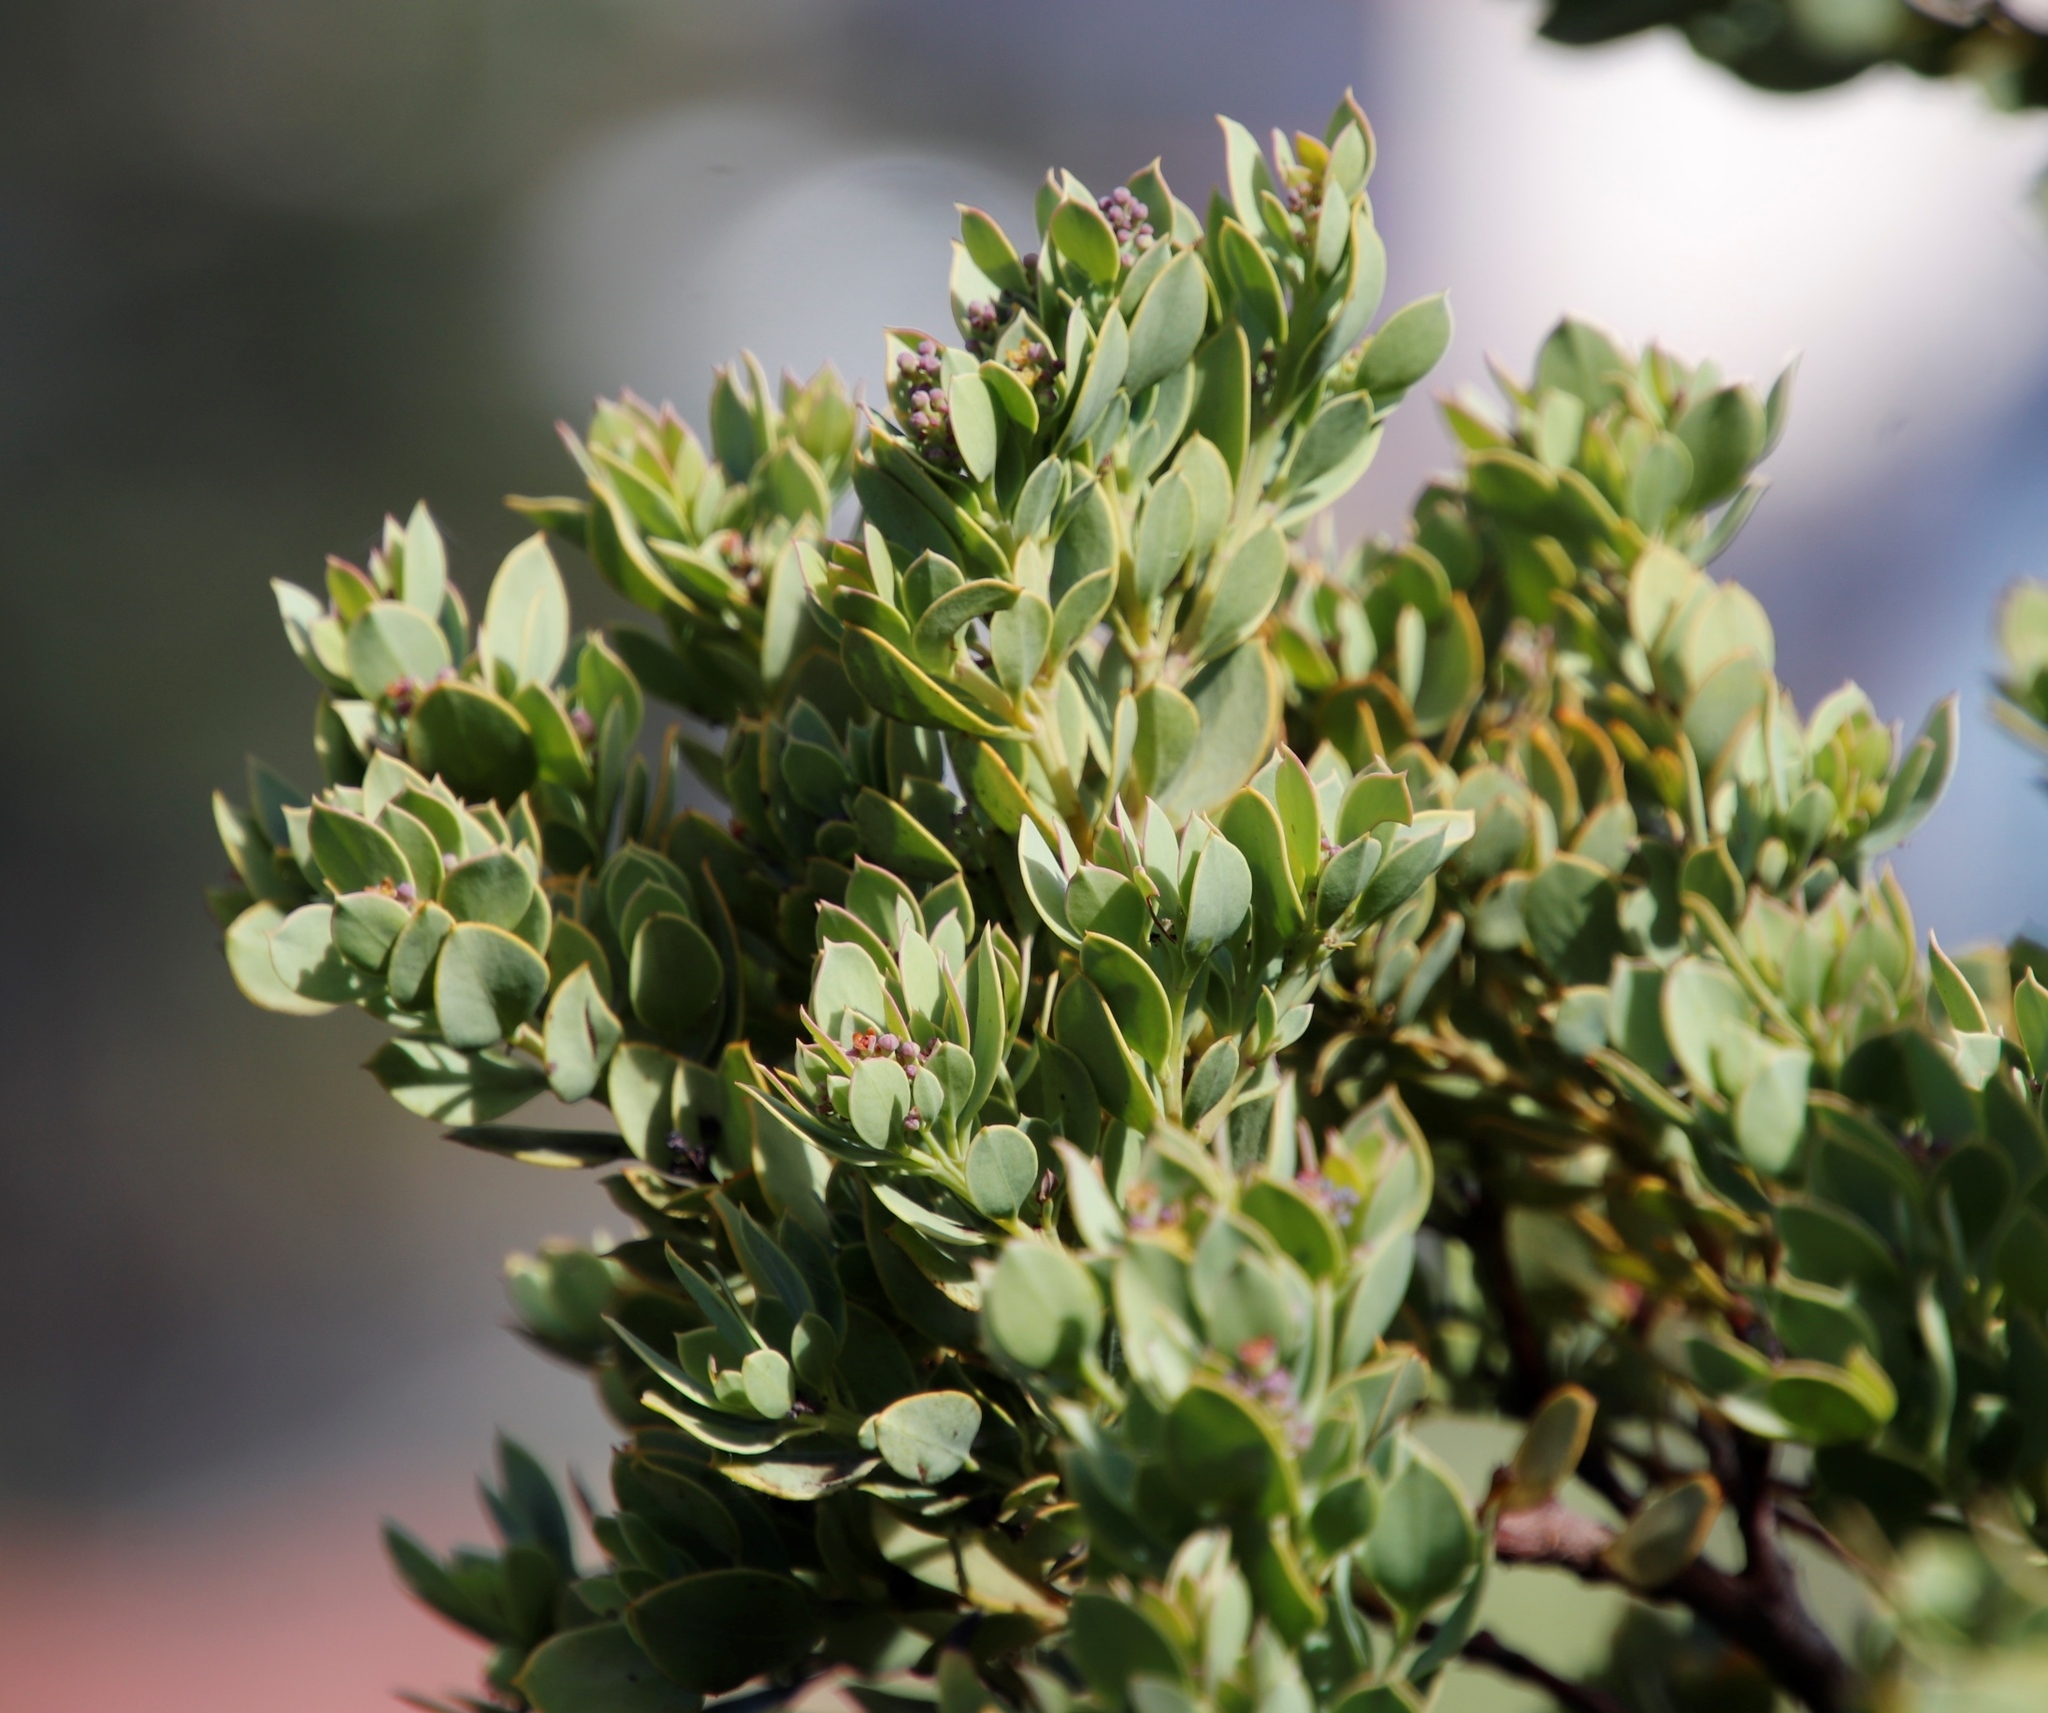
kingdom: Plantae
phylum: Tracheophyta
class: Magnoliopsida
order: Santalales
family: Santalaceae
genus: Osyris
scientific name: Osyris compressa
